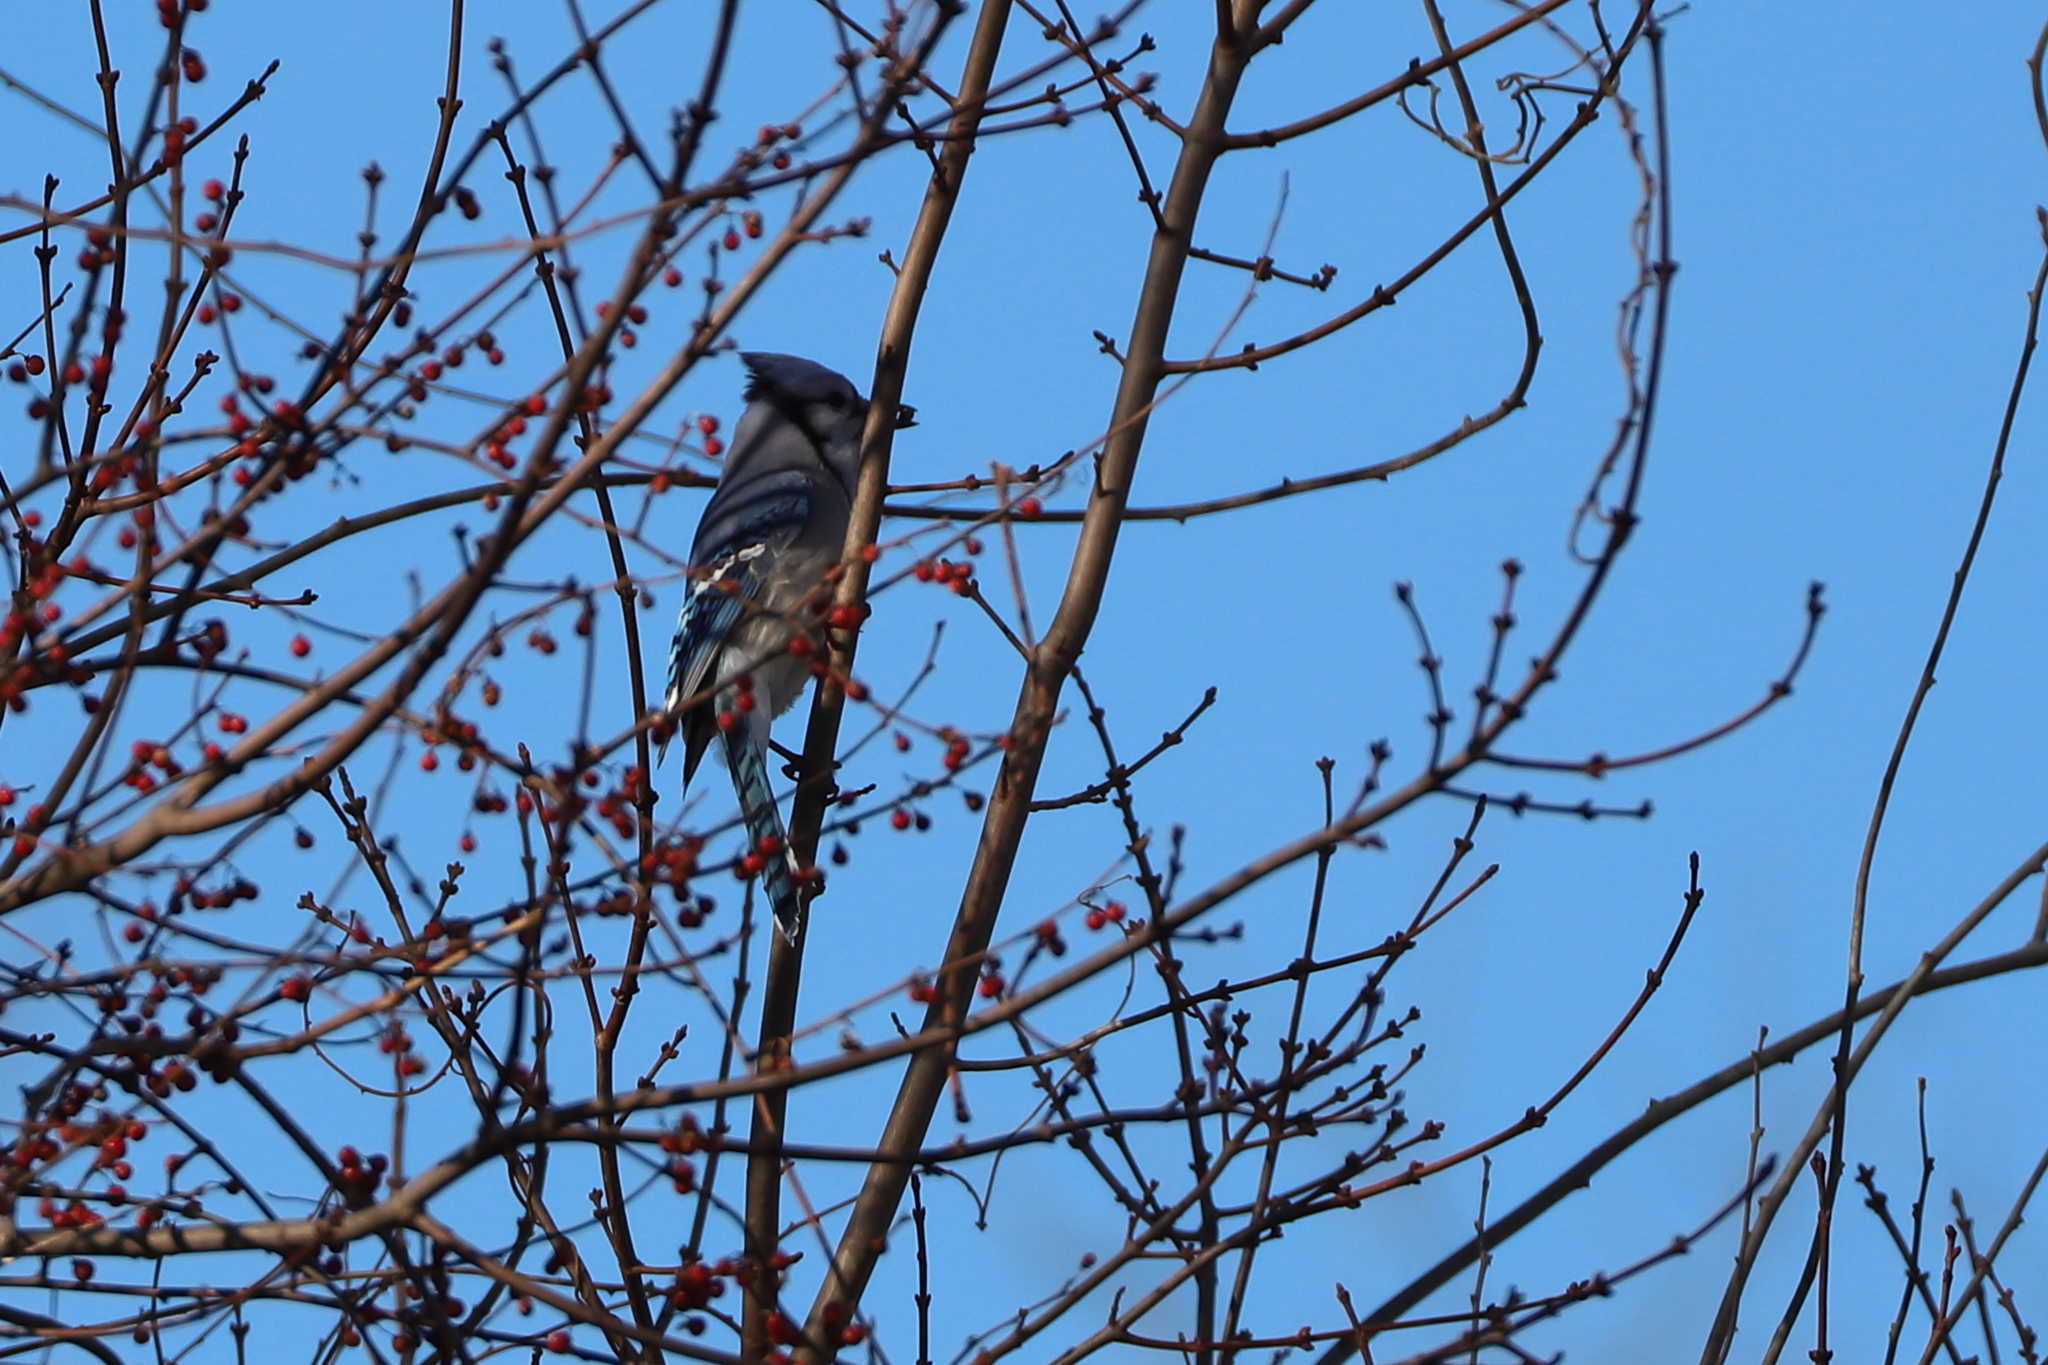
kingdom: Animalia
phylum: Chordata
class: Aves
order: Passeriformes
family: Corvidae
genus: Cyanocitta
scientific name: Cyanocitta cristata
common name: Blue jay
